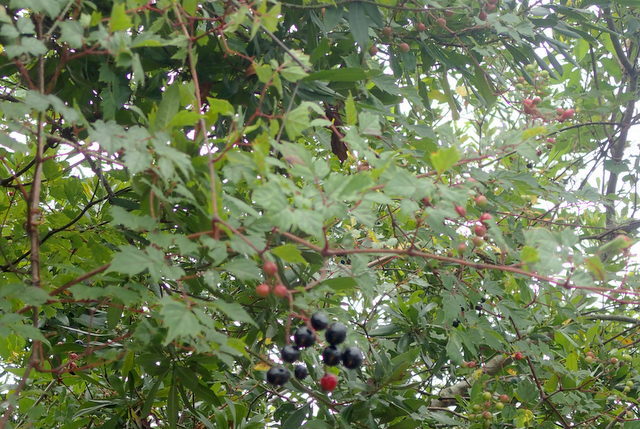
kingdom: Plantae
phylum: Tracheophyta
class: Magnoliopsida
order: Vitales
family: Vitaceae
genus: Nekemias
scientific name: Nekemias arborea
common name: Peppervine
